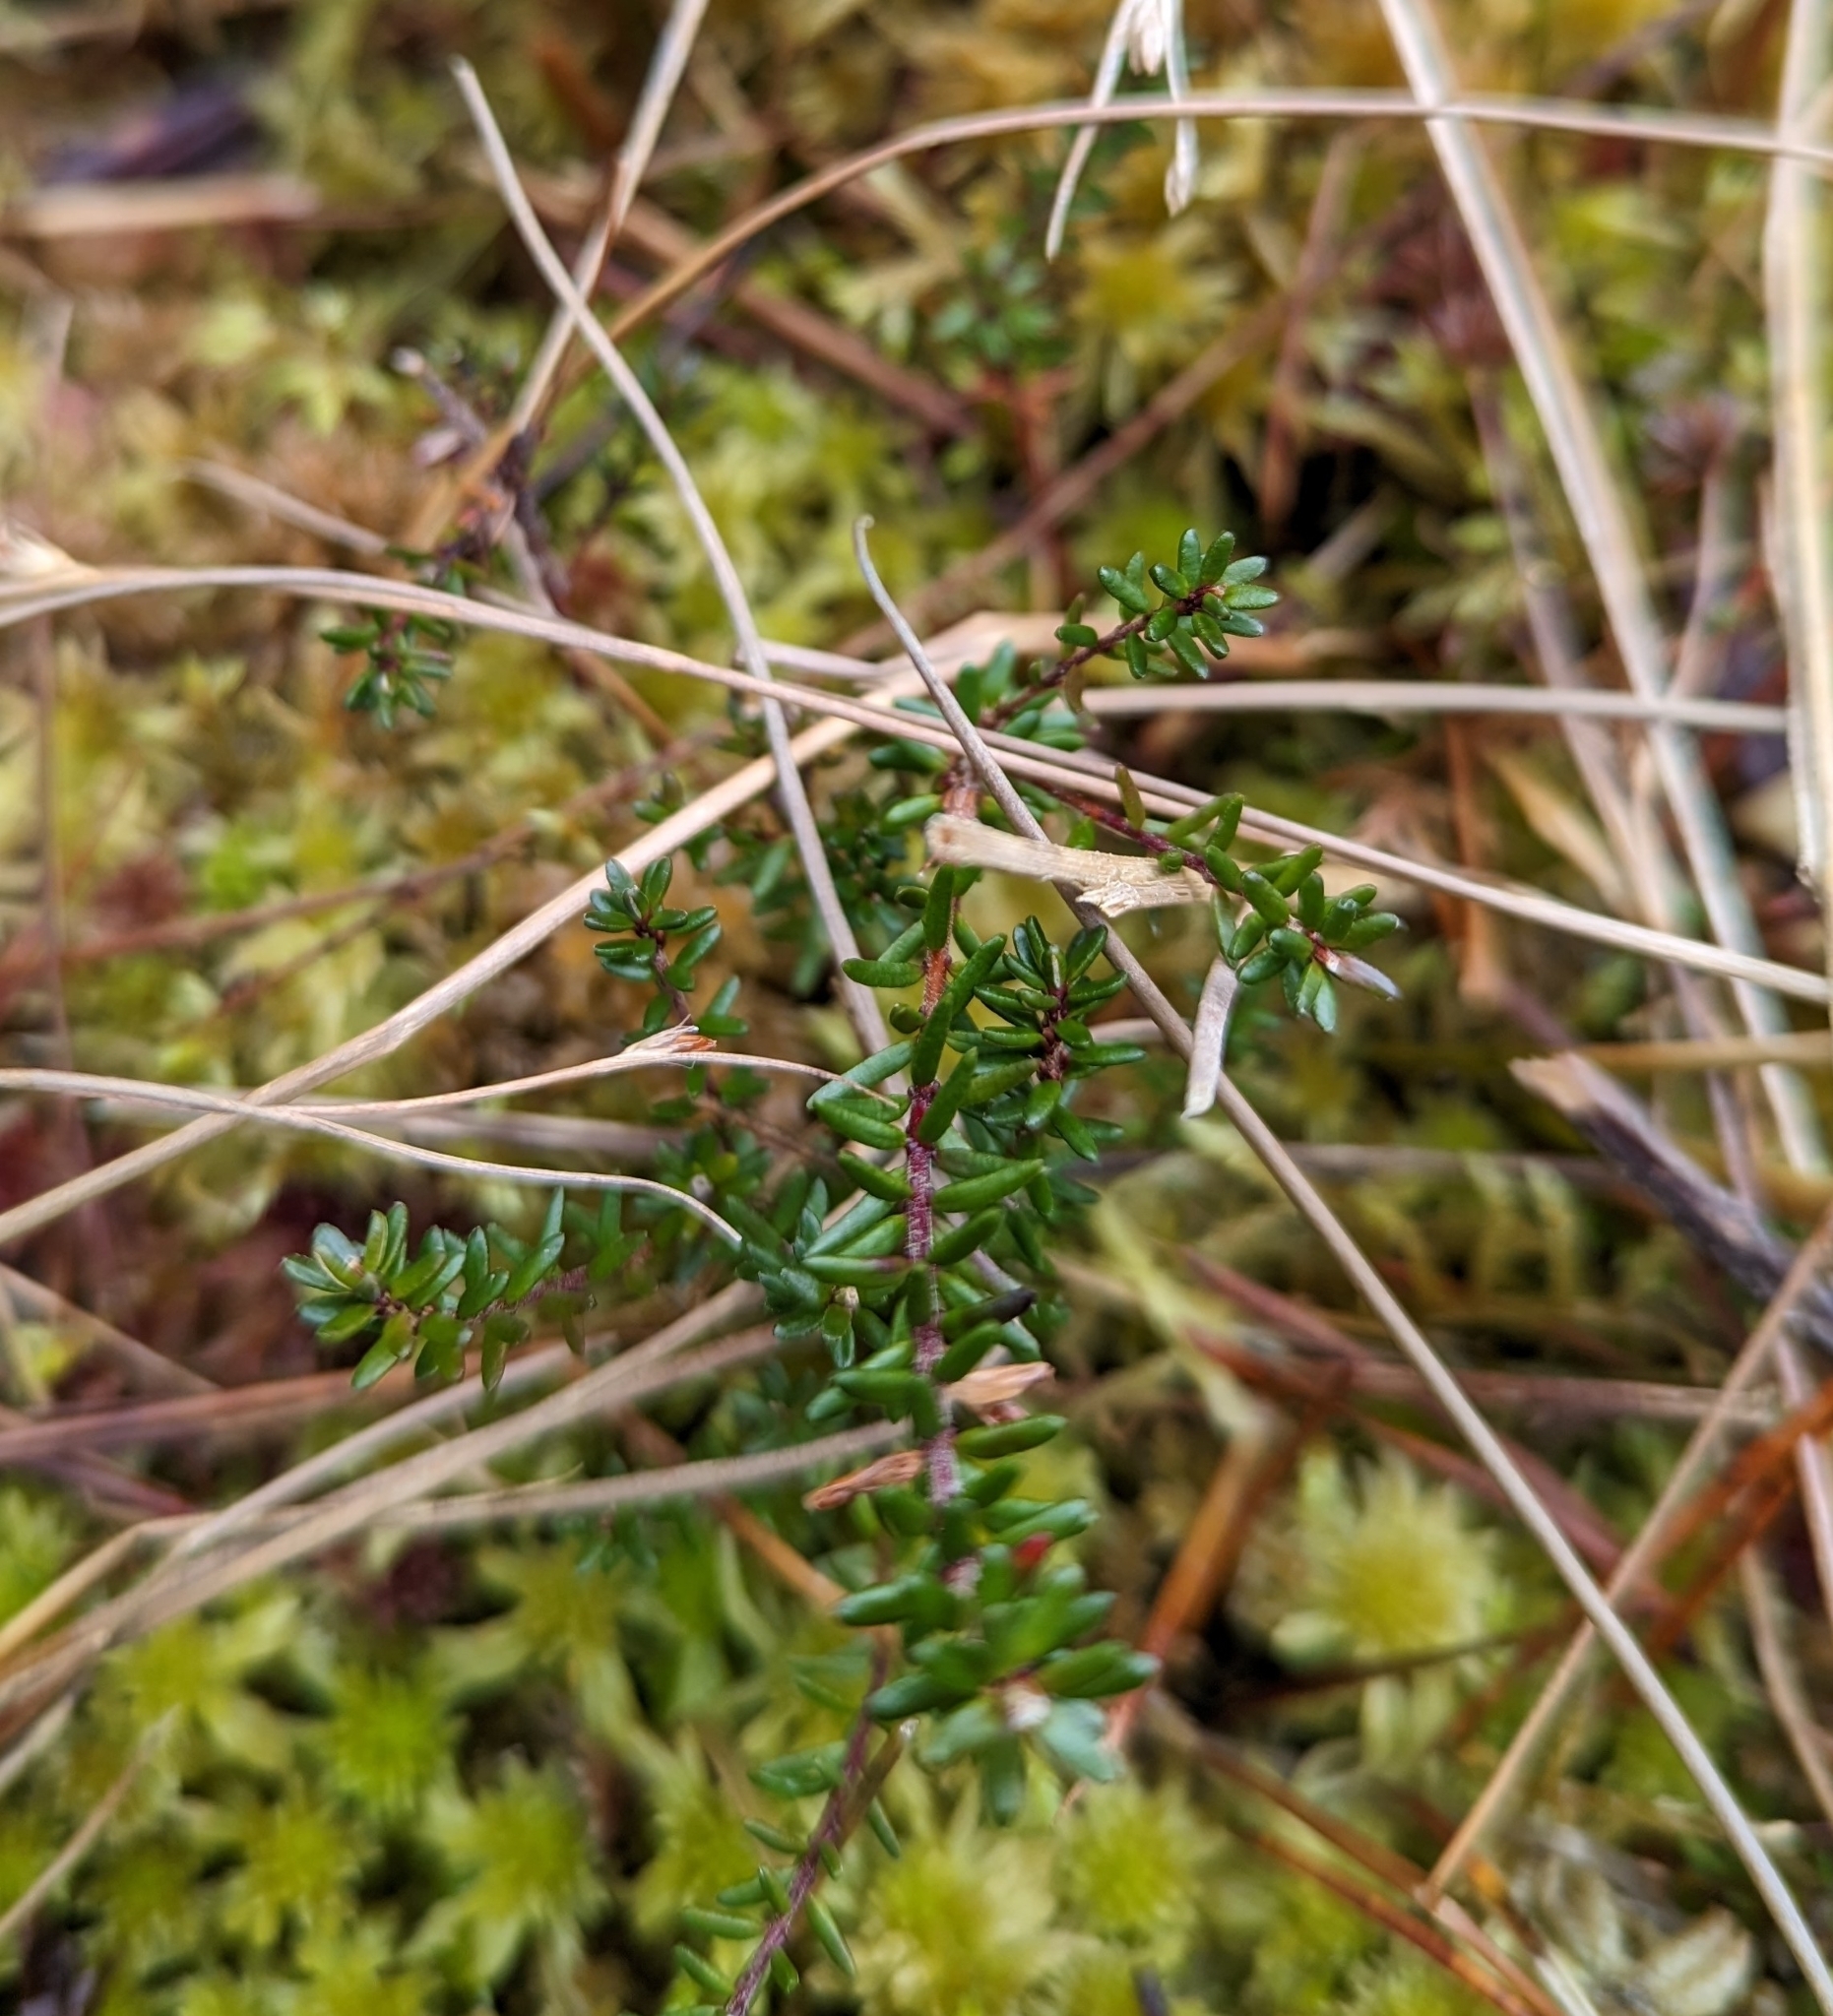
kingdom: Plantae
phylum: Tracheophyta
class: Magnoliopsida
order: Ericales
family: Ericaceae
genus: Empetrum
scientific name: Empetrum nigrum
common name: Black crowberry
